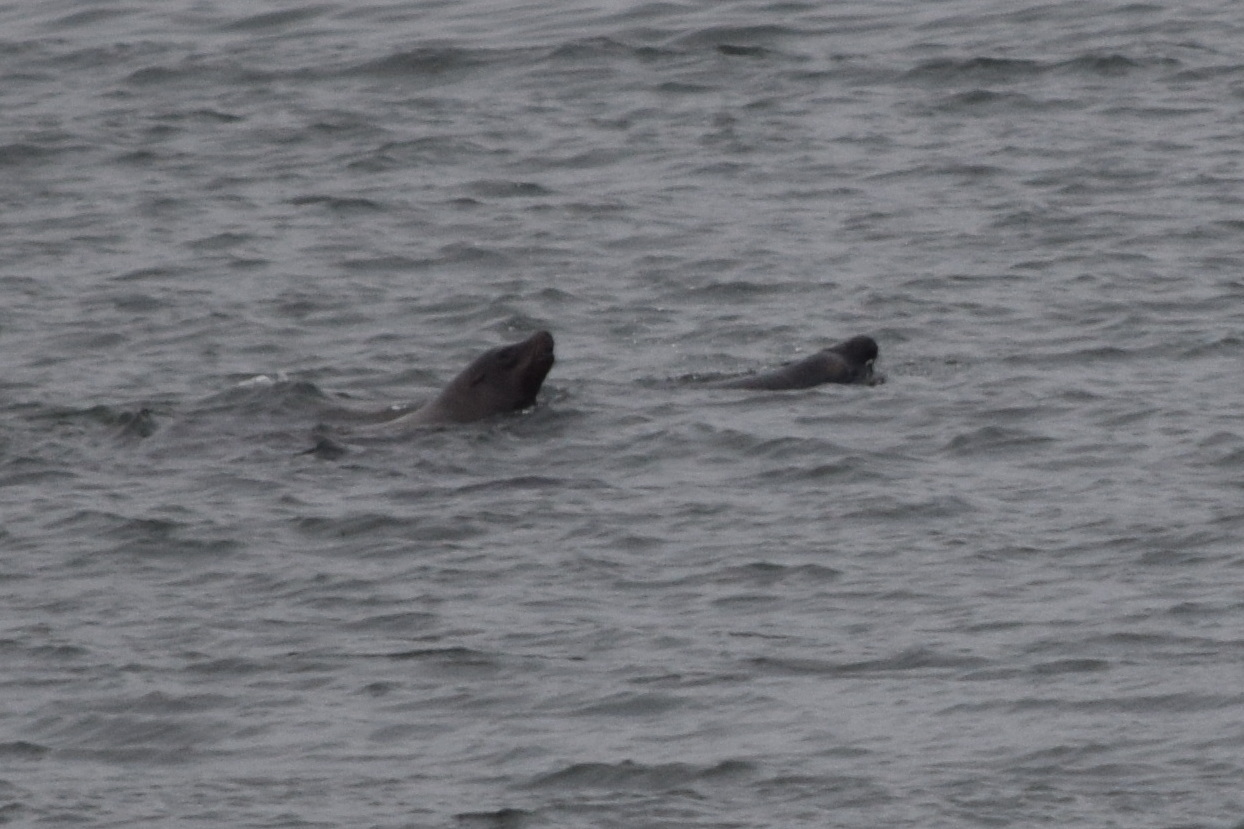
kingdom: Animalia
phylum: Chordata
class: Mammalia
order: Carnivora
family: Otariidae
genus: Zalophus
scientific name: Zalophus californianus
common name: California sea lion
